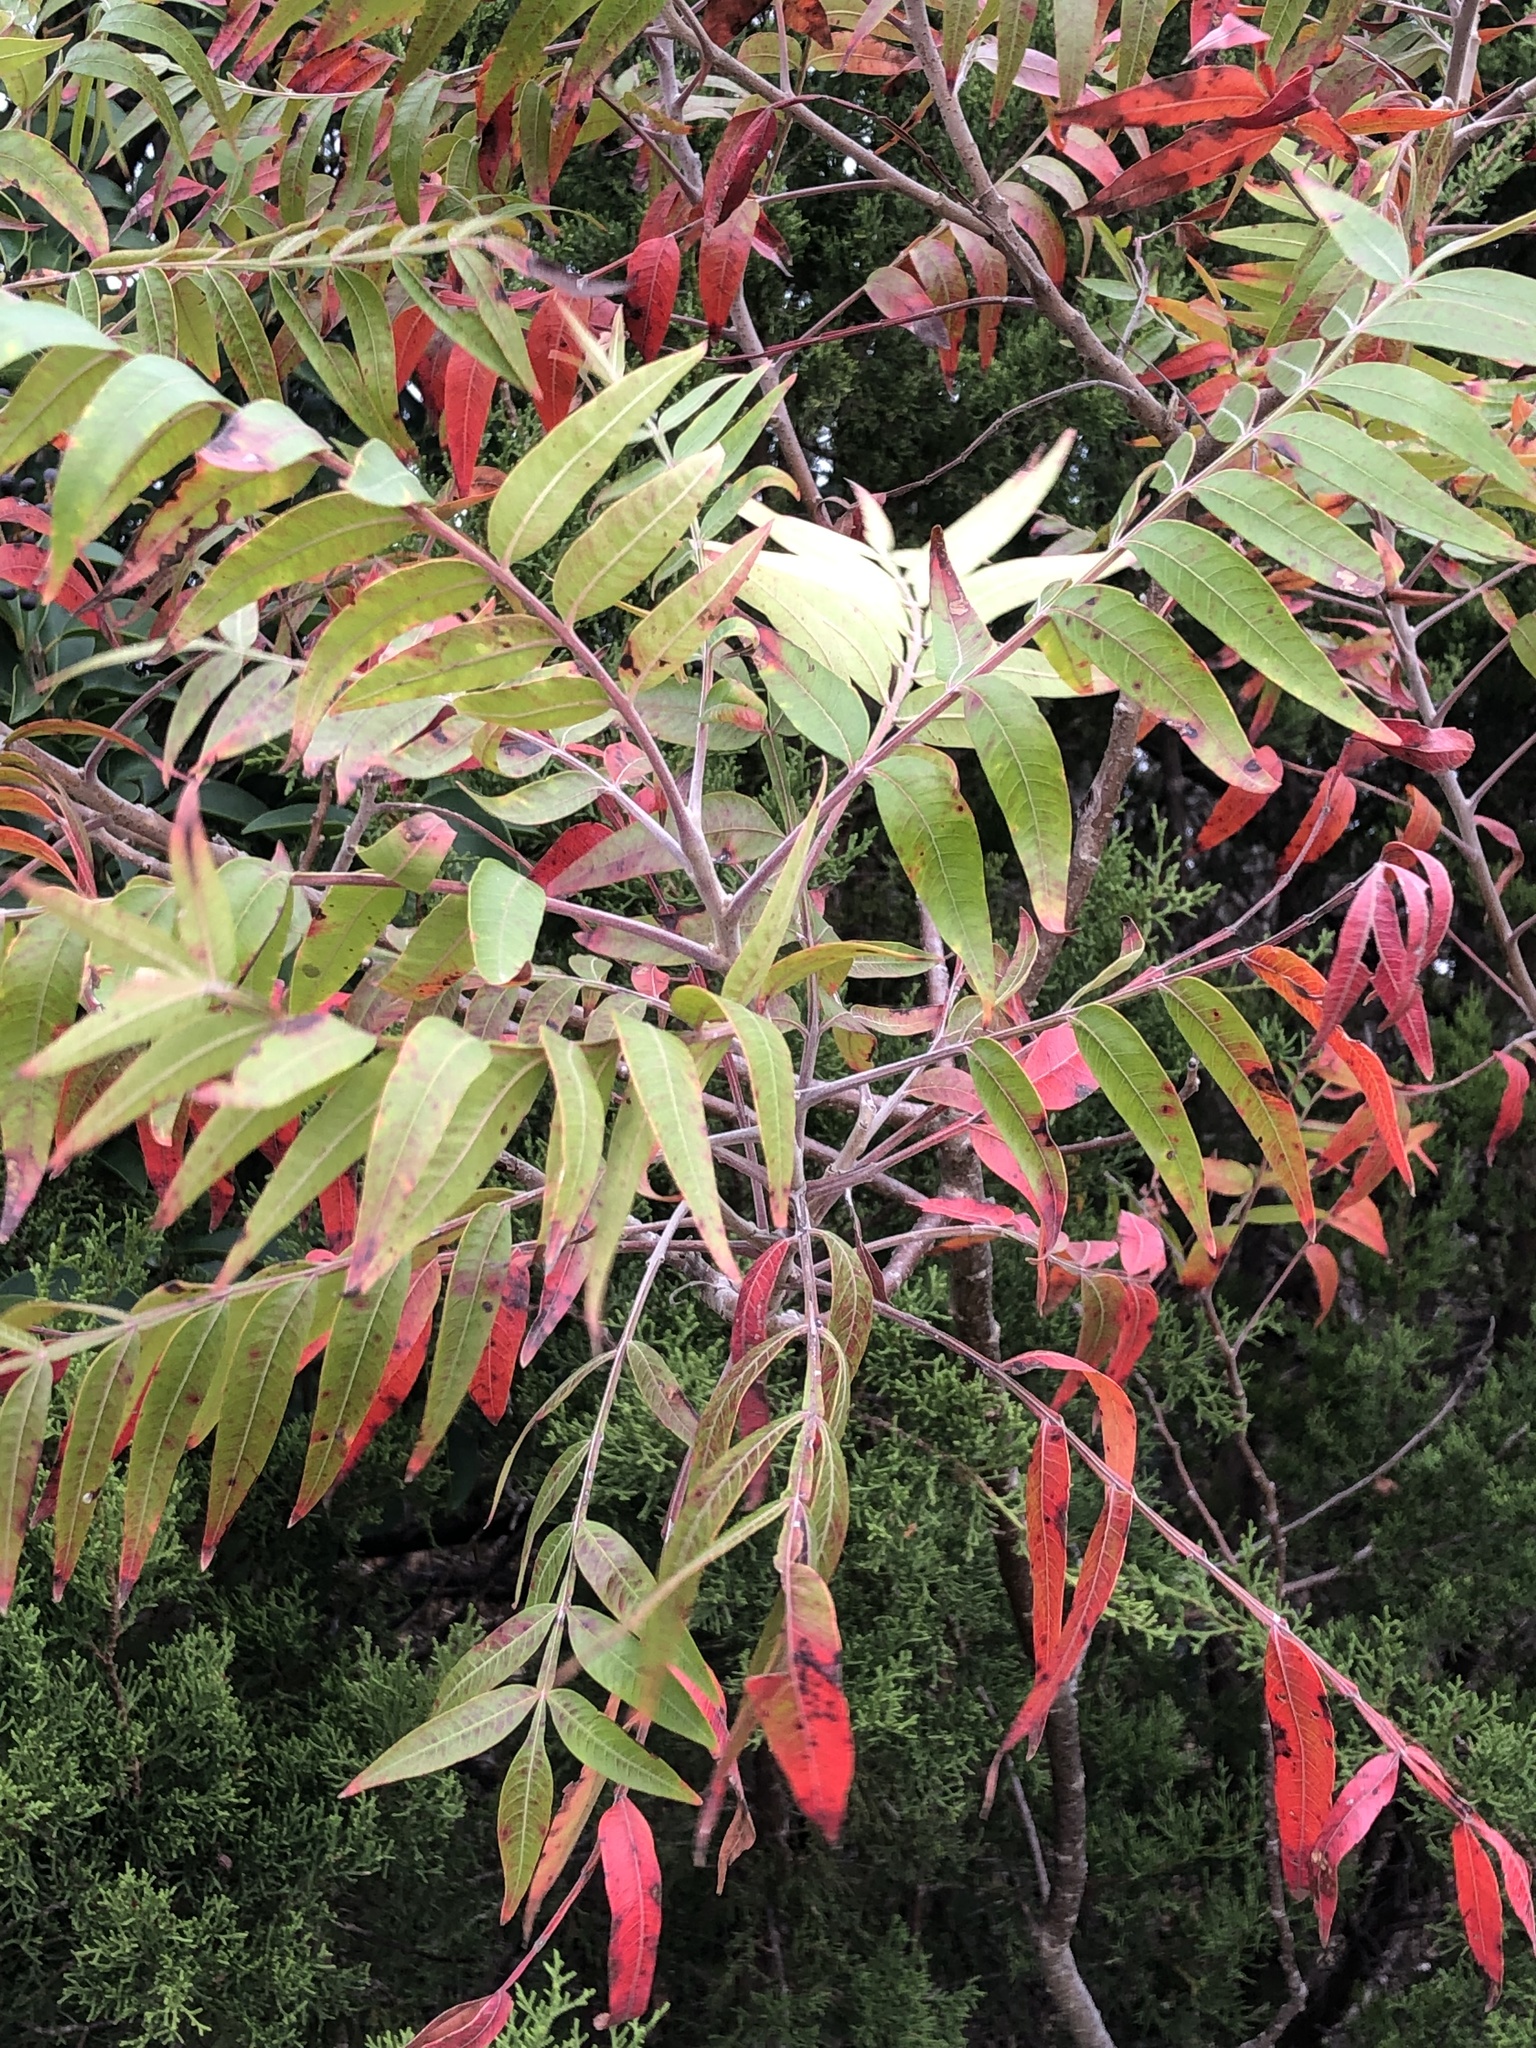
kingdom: Plantae
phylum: Tracheophyta
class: Magnoliopsida
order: Sapindales
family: Anacardiaceae
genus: Rhus
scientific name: Rhus lanceolata
